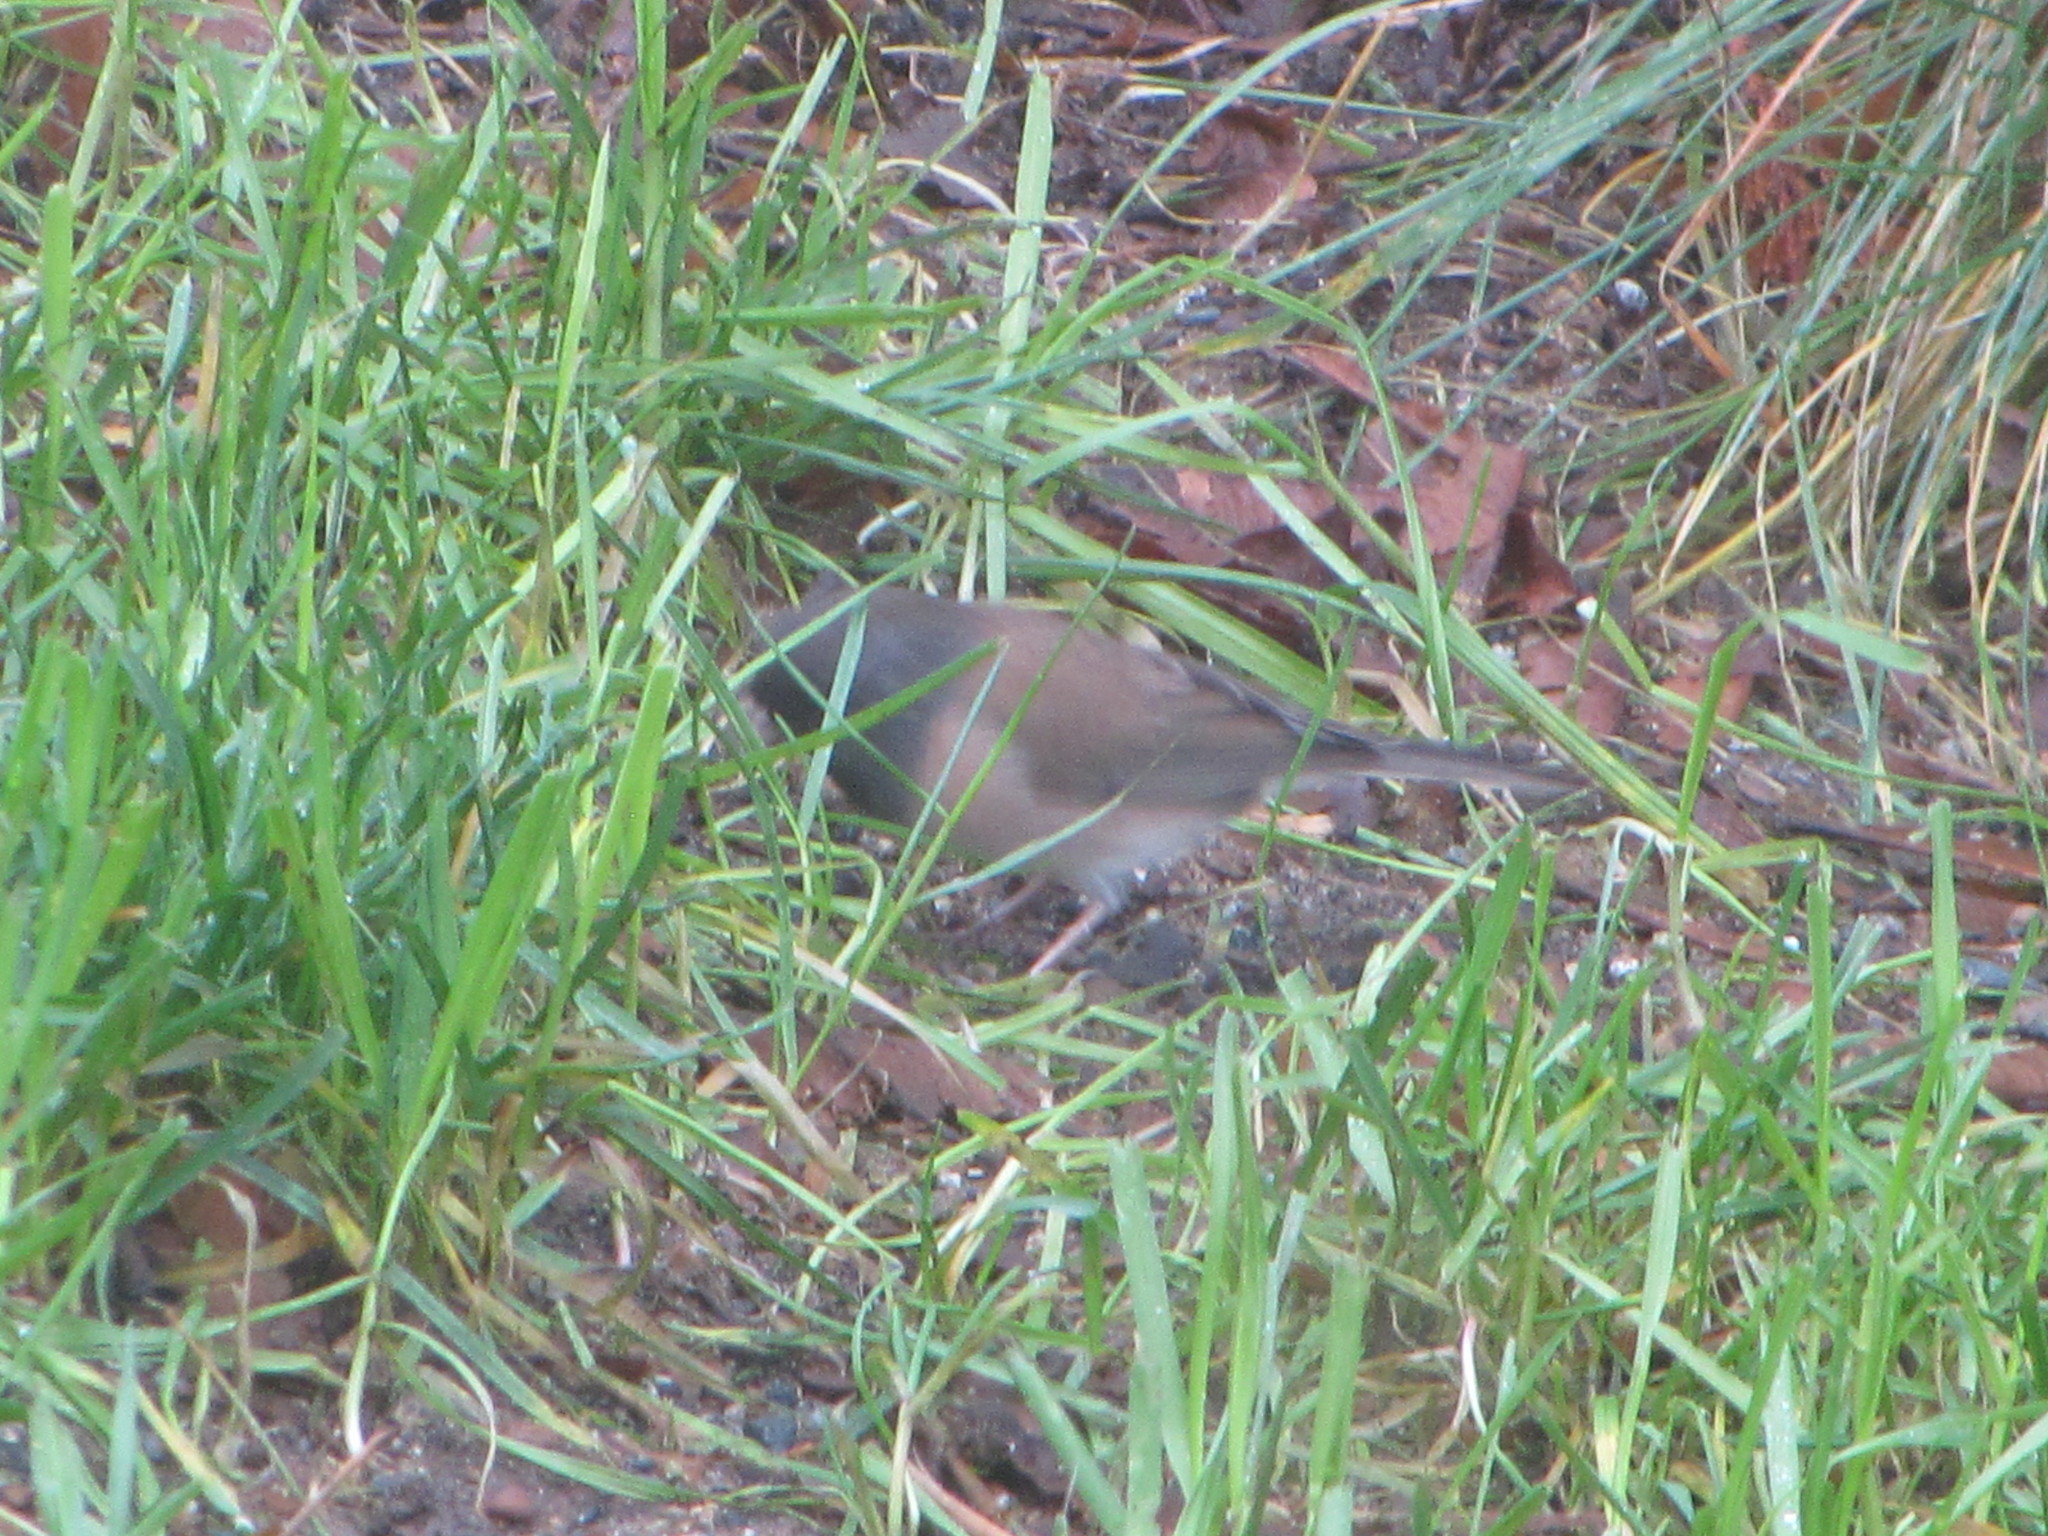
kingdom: Animalia
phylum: Chordata
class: Aves
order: Passeriformes
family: Passerellidae
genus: Junco
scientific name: Junco hyemalis
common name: Dark-eyed junco
